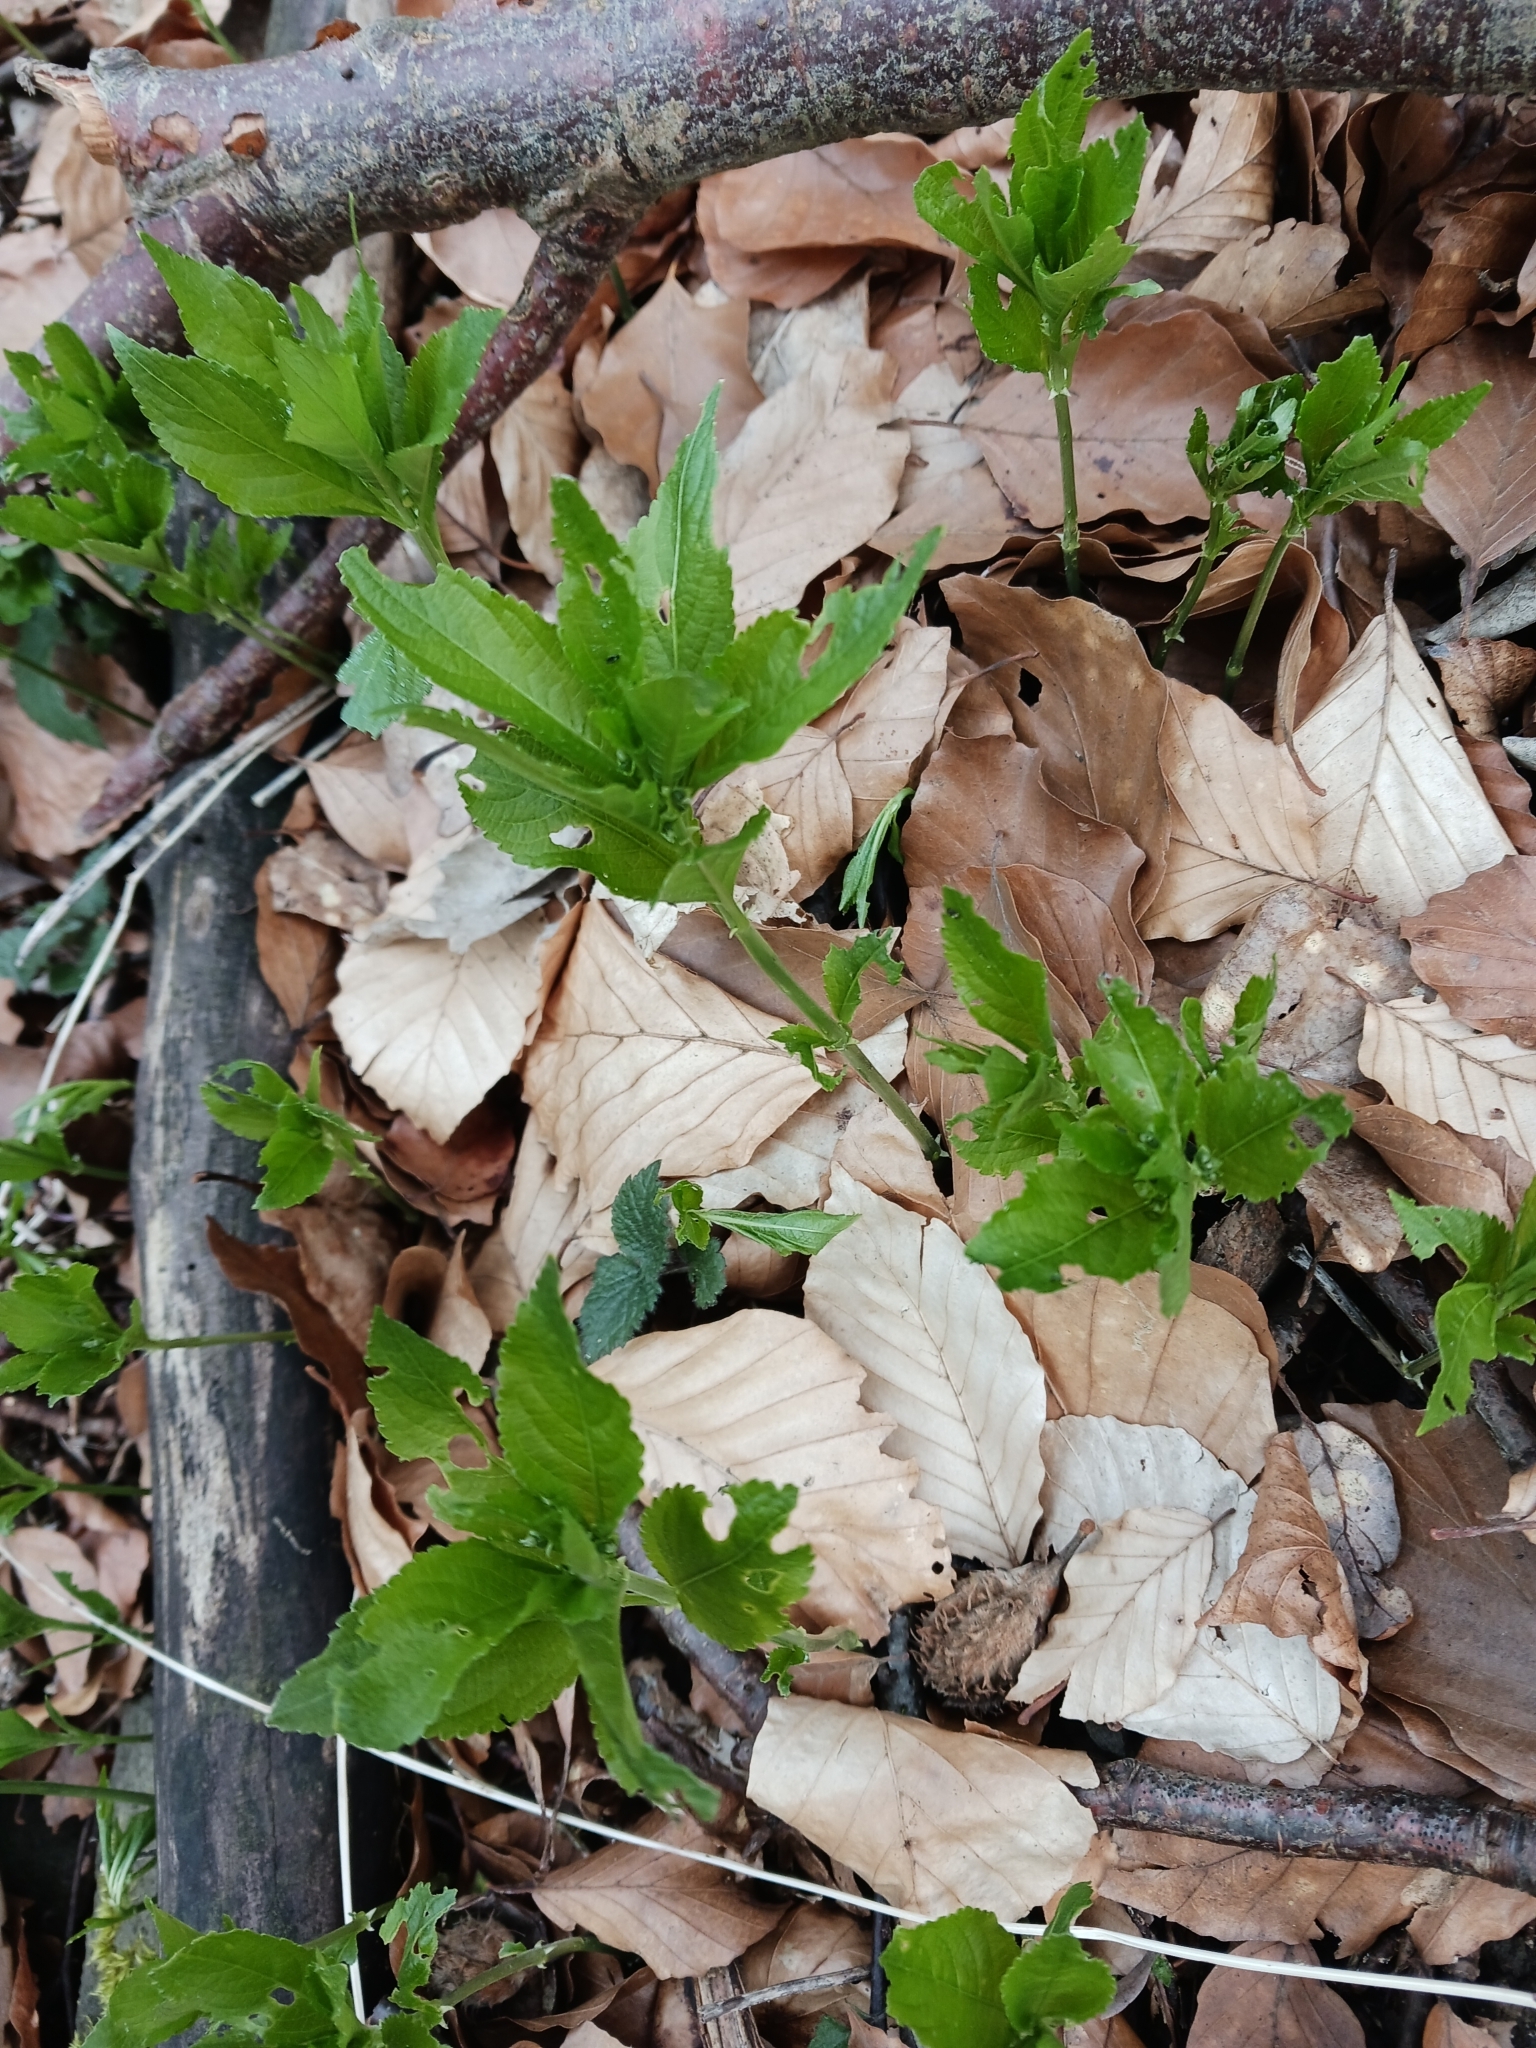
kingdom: Plantae
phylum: Tracheophyta
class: Magnoliopsida
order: Malpighiales
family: Euphorbiaceae
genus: Mercurialis
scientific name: Mercurialis perennis
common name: Dog mercury
